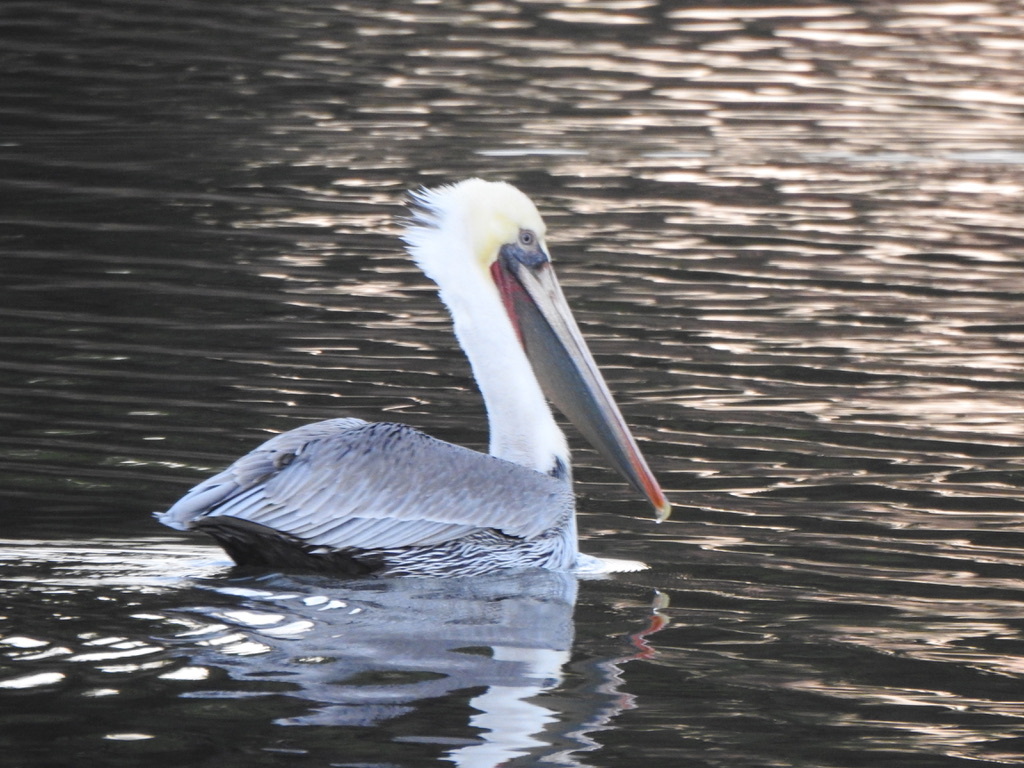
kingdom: Animalia
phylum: Chordata
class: Aves
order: Pelecaniformes
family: Pelecanidae
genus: Pelecanus
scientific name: Pelecanus occidentalis
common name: Brown pelican
